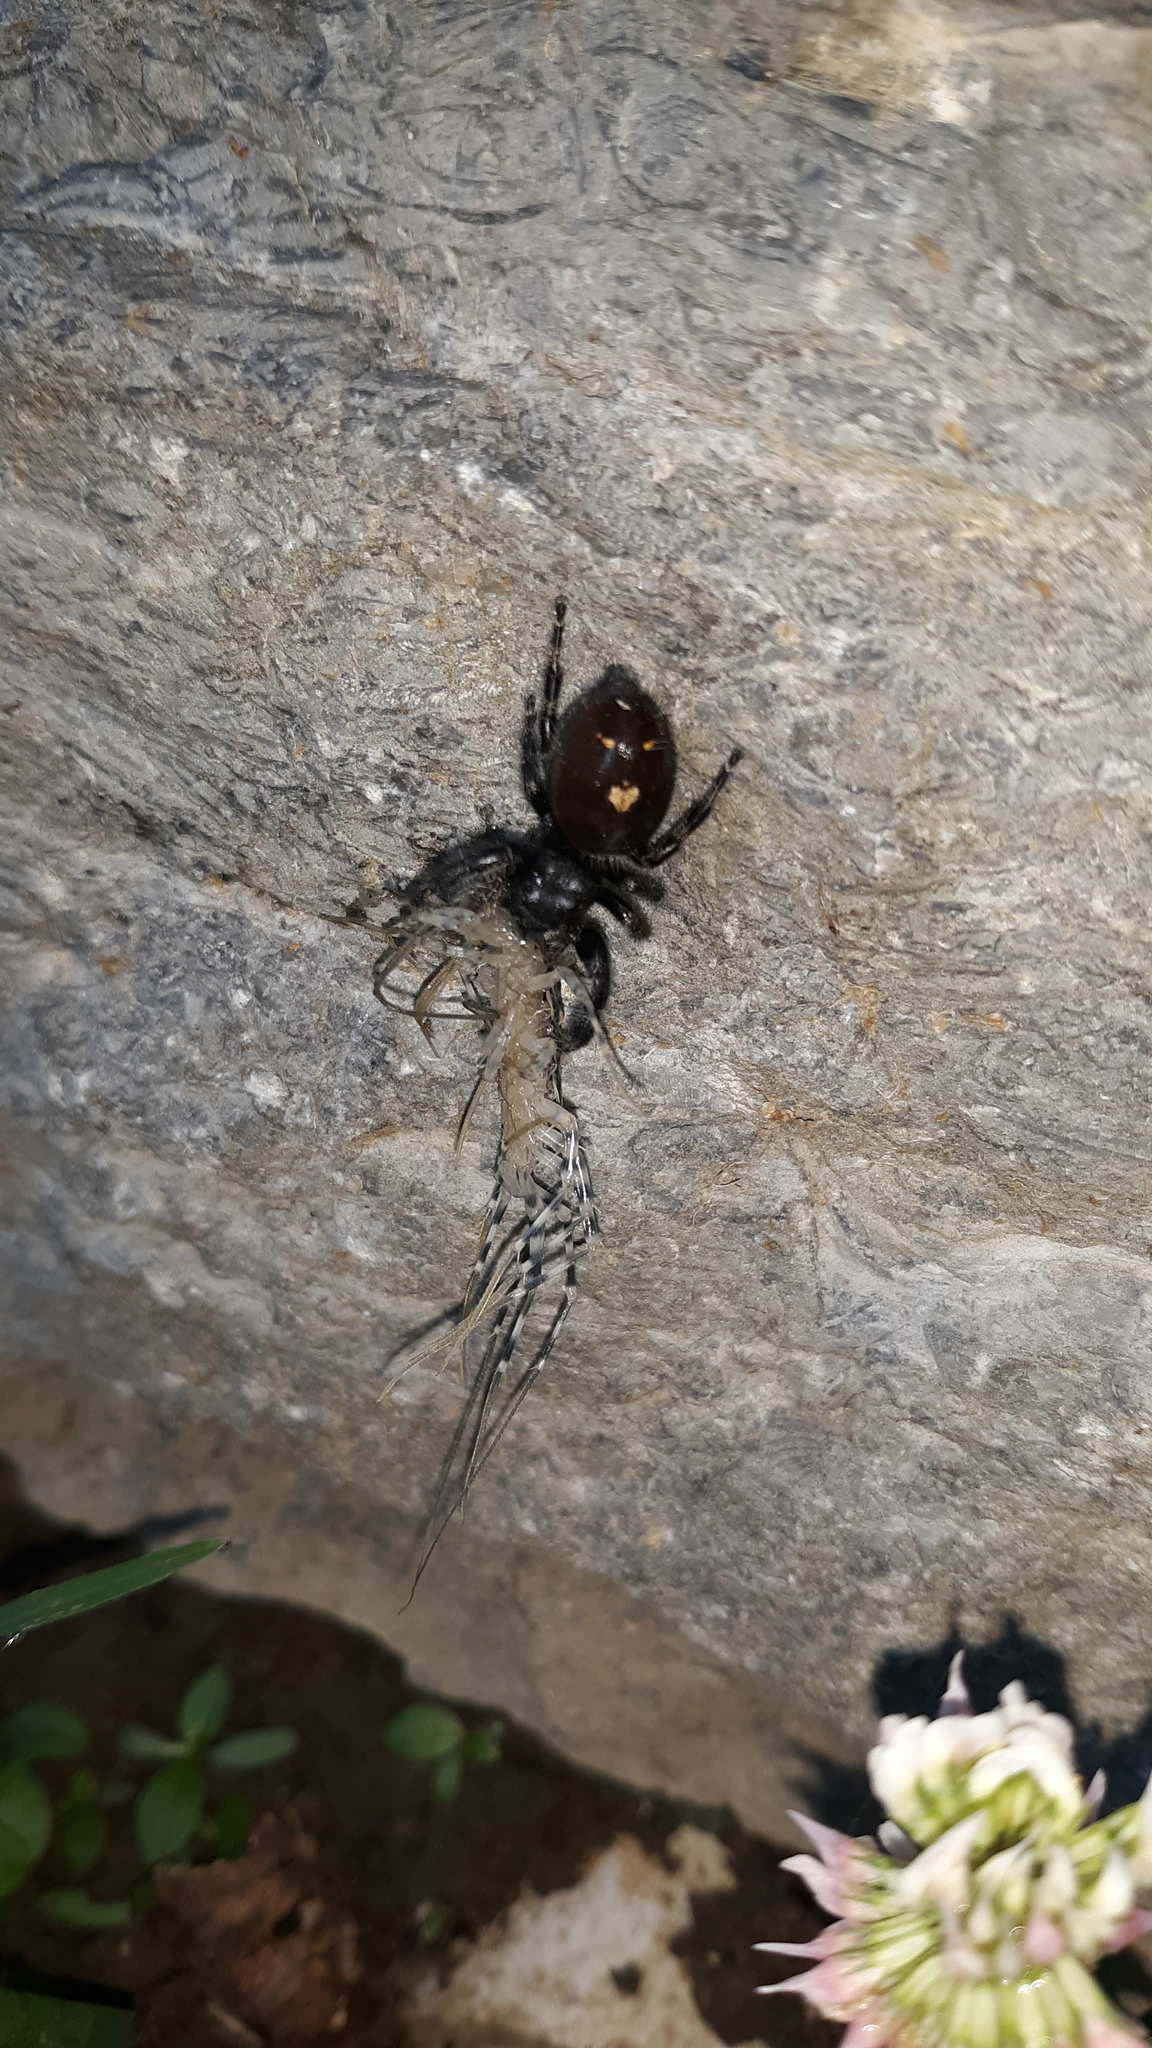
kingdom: Animalia
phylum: Arthropoda
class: Arachnida
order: Araneae
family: Salticidae
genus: Phidippus
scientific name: Phidippus audax
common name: Bold jumper
